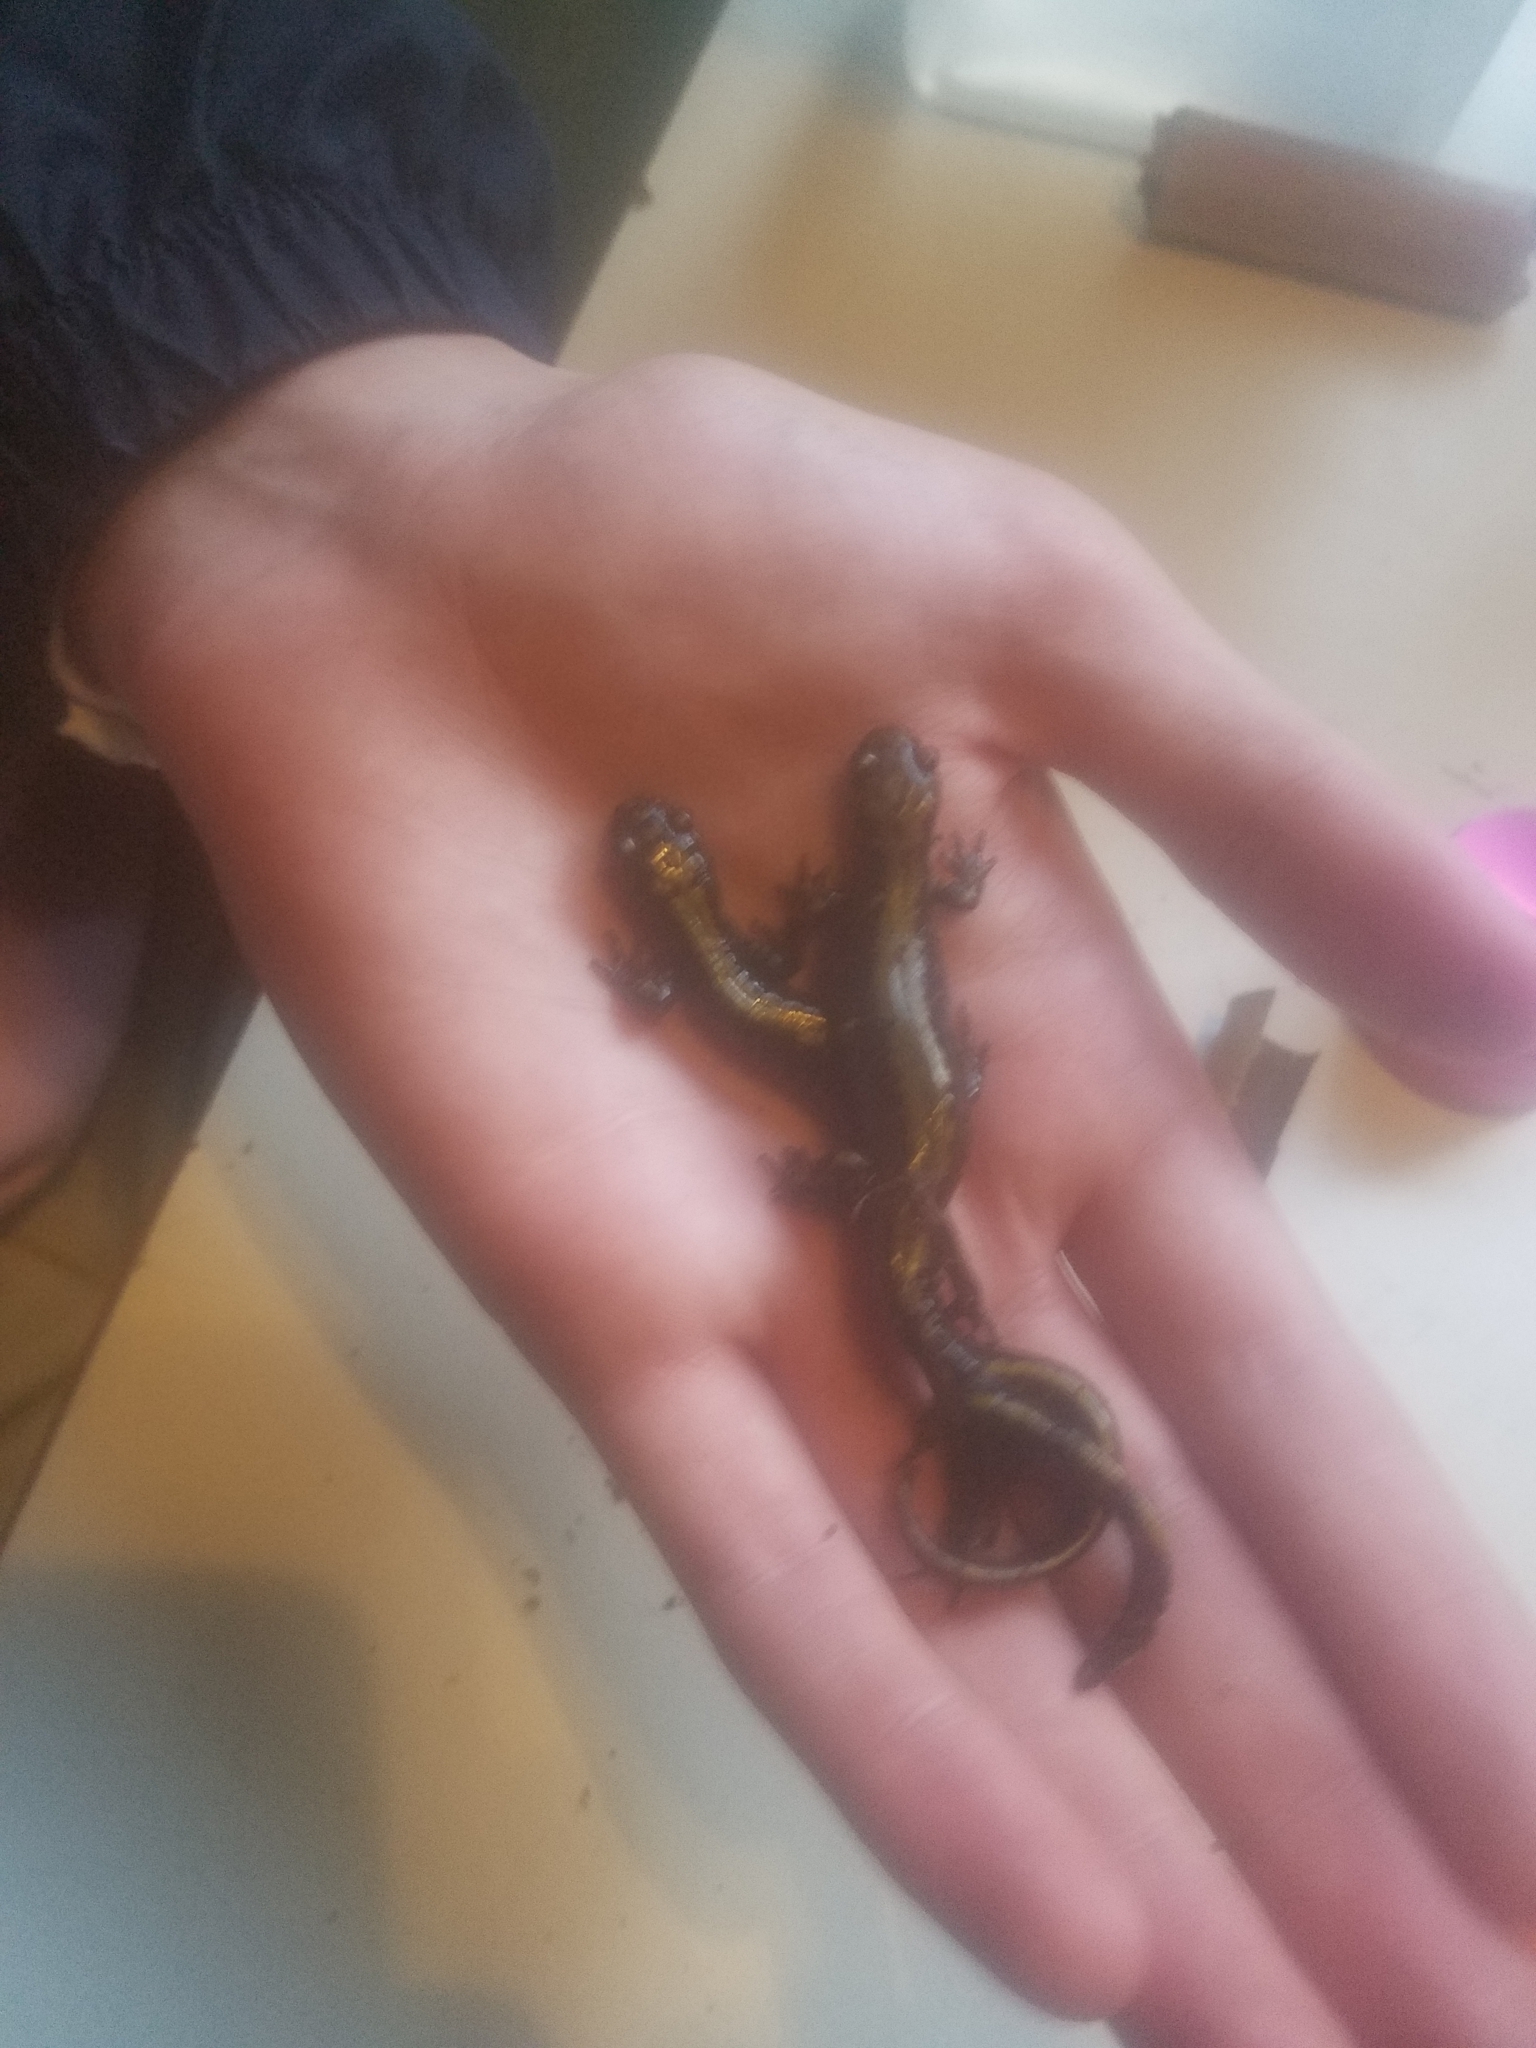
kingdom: Animalia
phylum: Chordata
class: Amphibia
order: Caudata
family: Ambystomatidae
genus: Ambystoma
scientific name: Ambystoma macrodactylum
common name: Long-toed salamander
